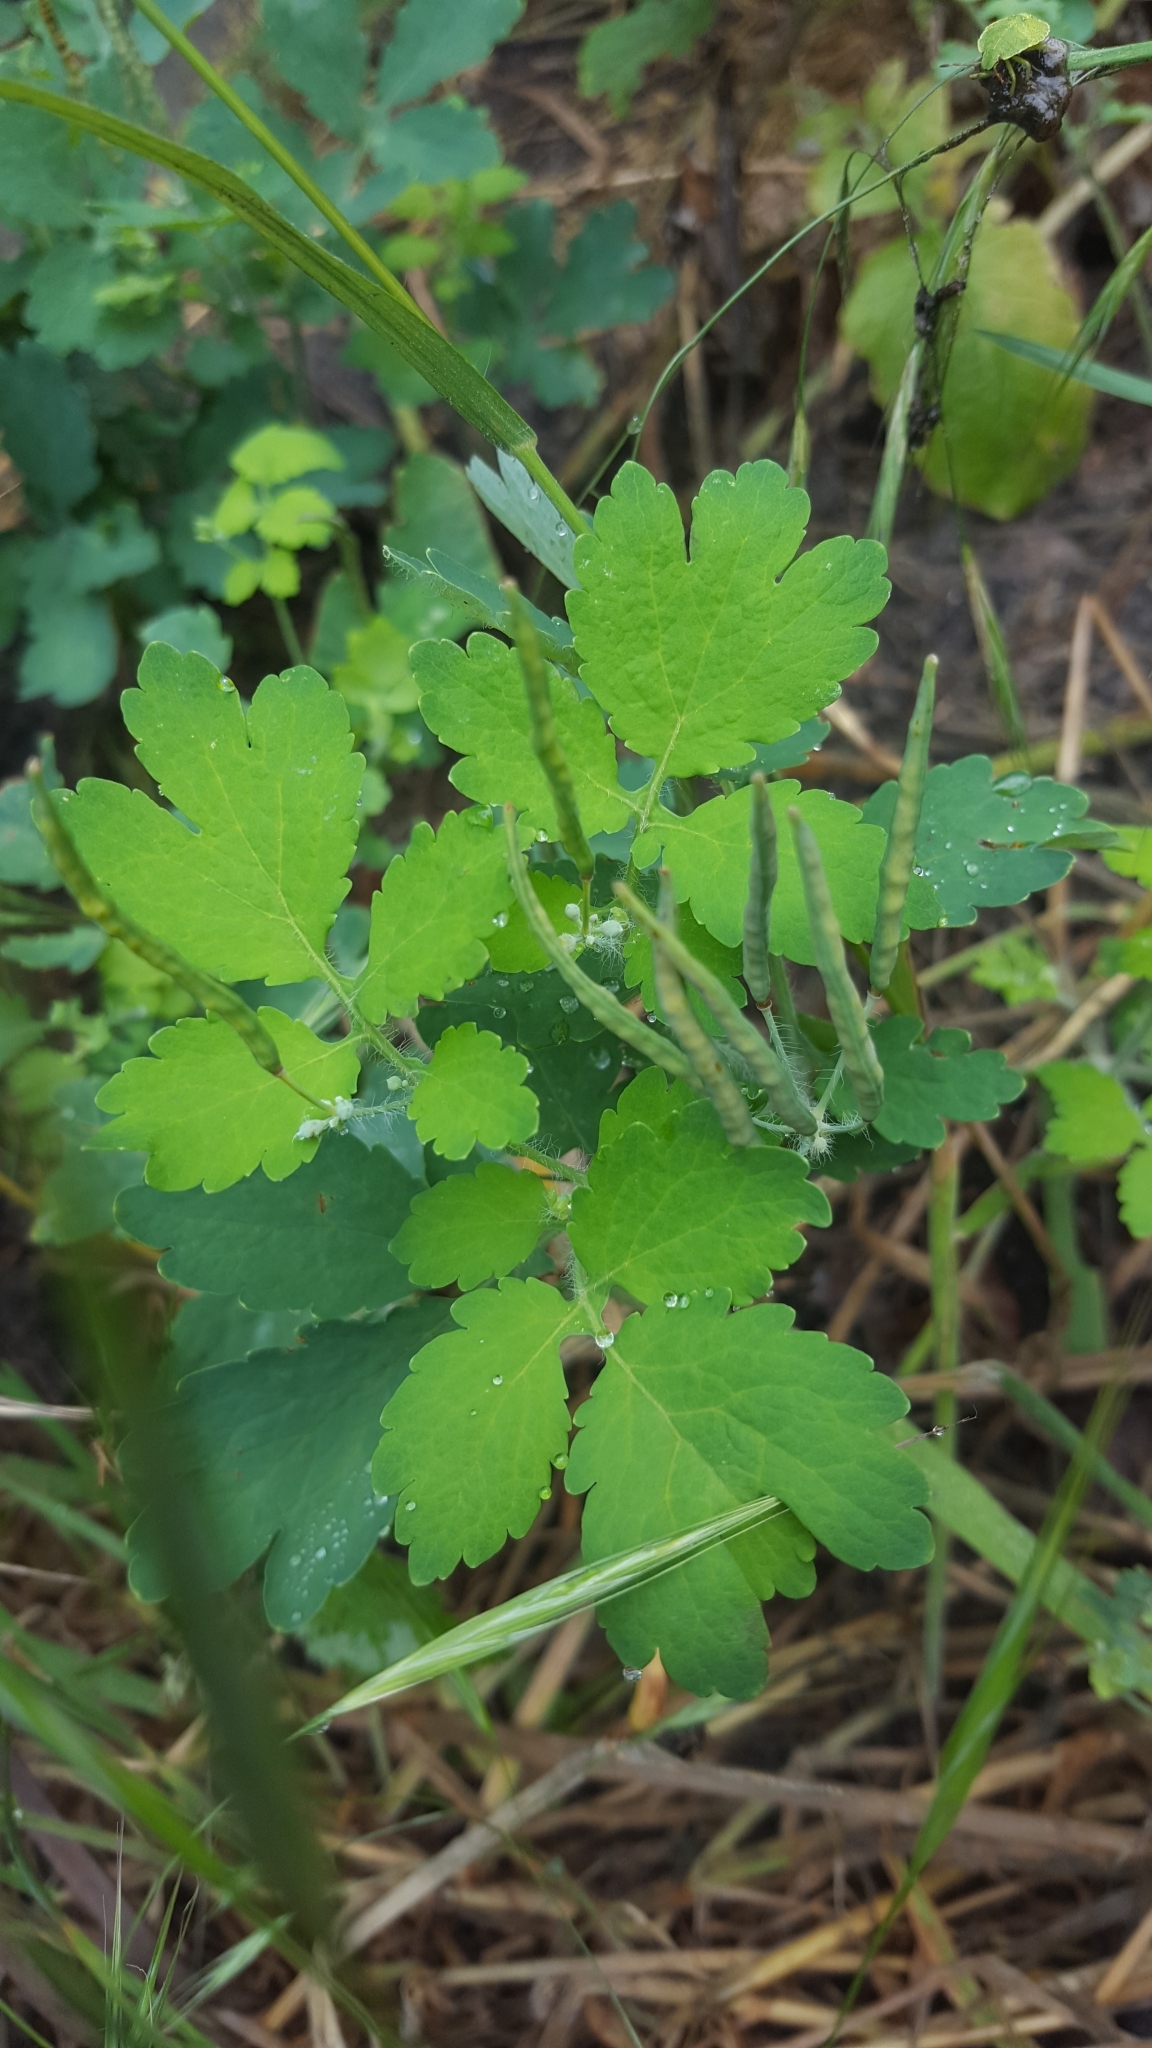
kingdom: Plantae
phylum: Tracheophyta
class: Magnoliopsida
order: Ranunculales
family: Papaveraceae
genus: Chelidonium
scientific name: Chelidonium majus
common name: Greater celandine
